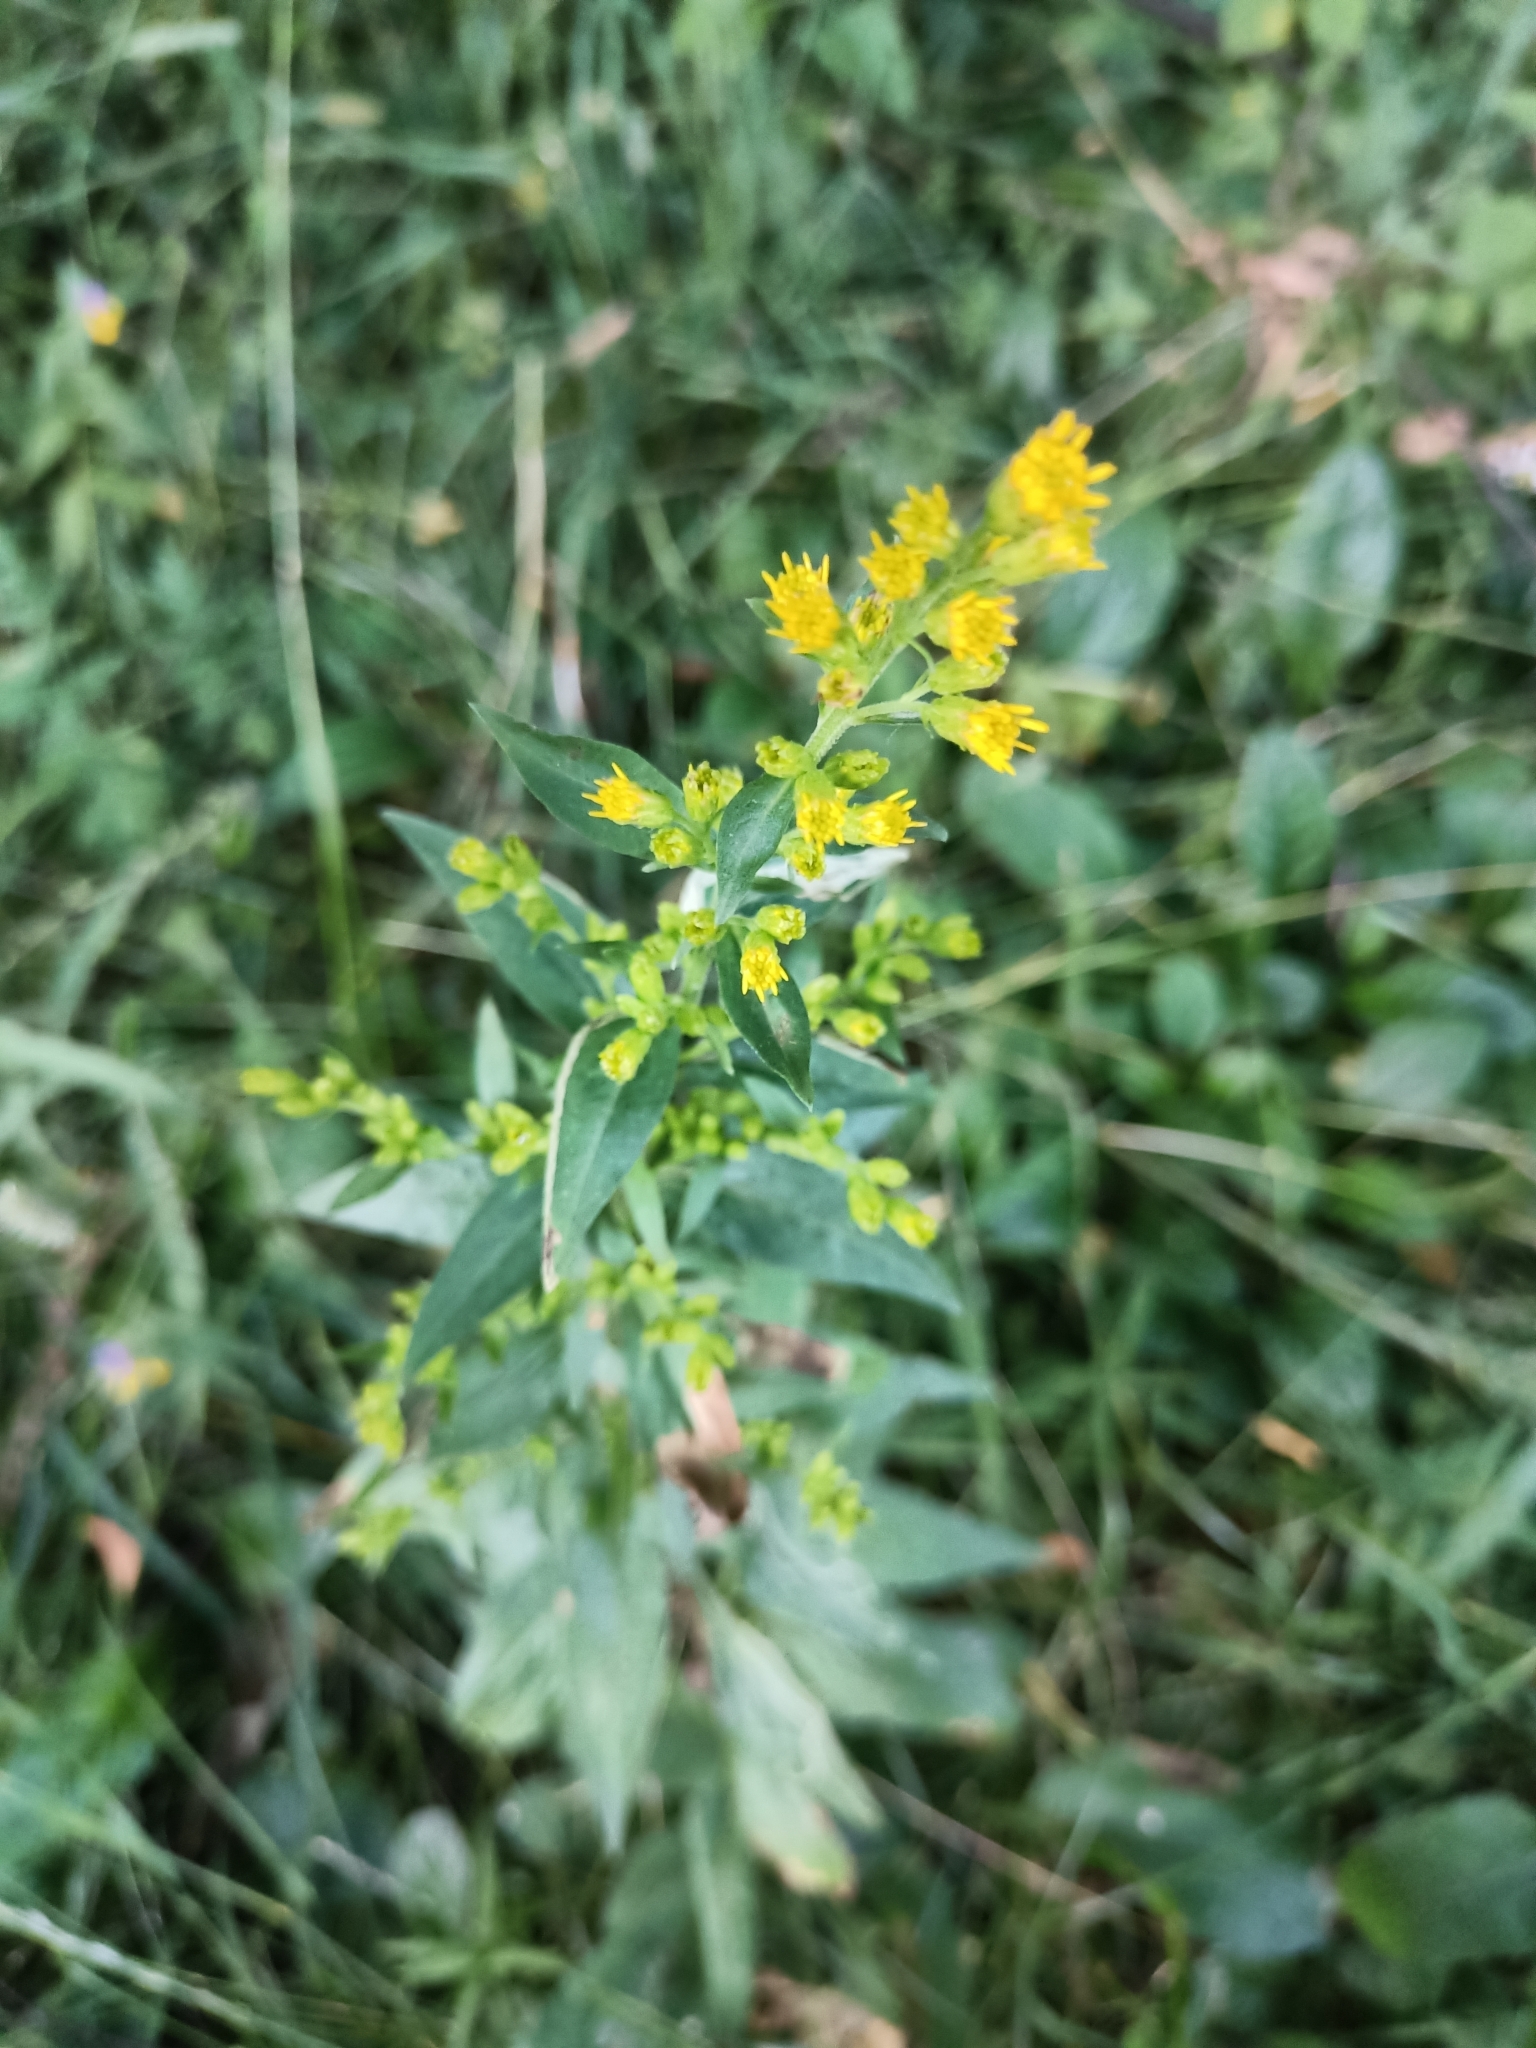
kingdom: Plantae
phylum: Tracheophyta
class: Magnoliopsida
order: Asterales
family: Asteraceae
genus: Solidago
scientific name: Solidago virgaurea
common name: Goldenrod
